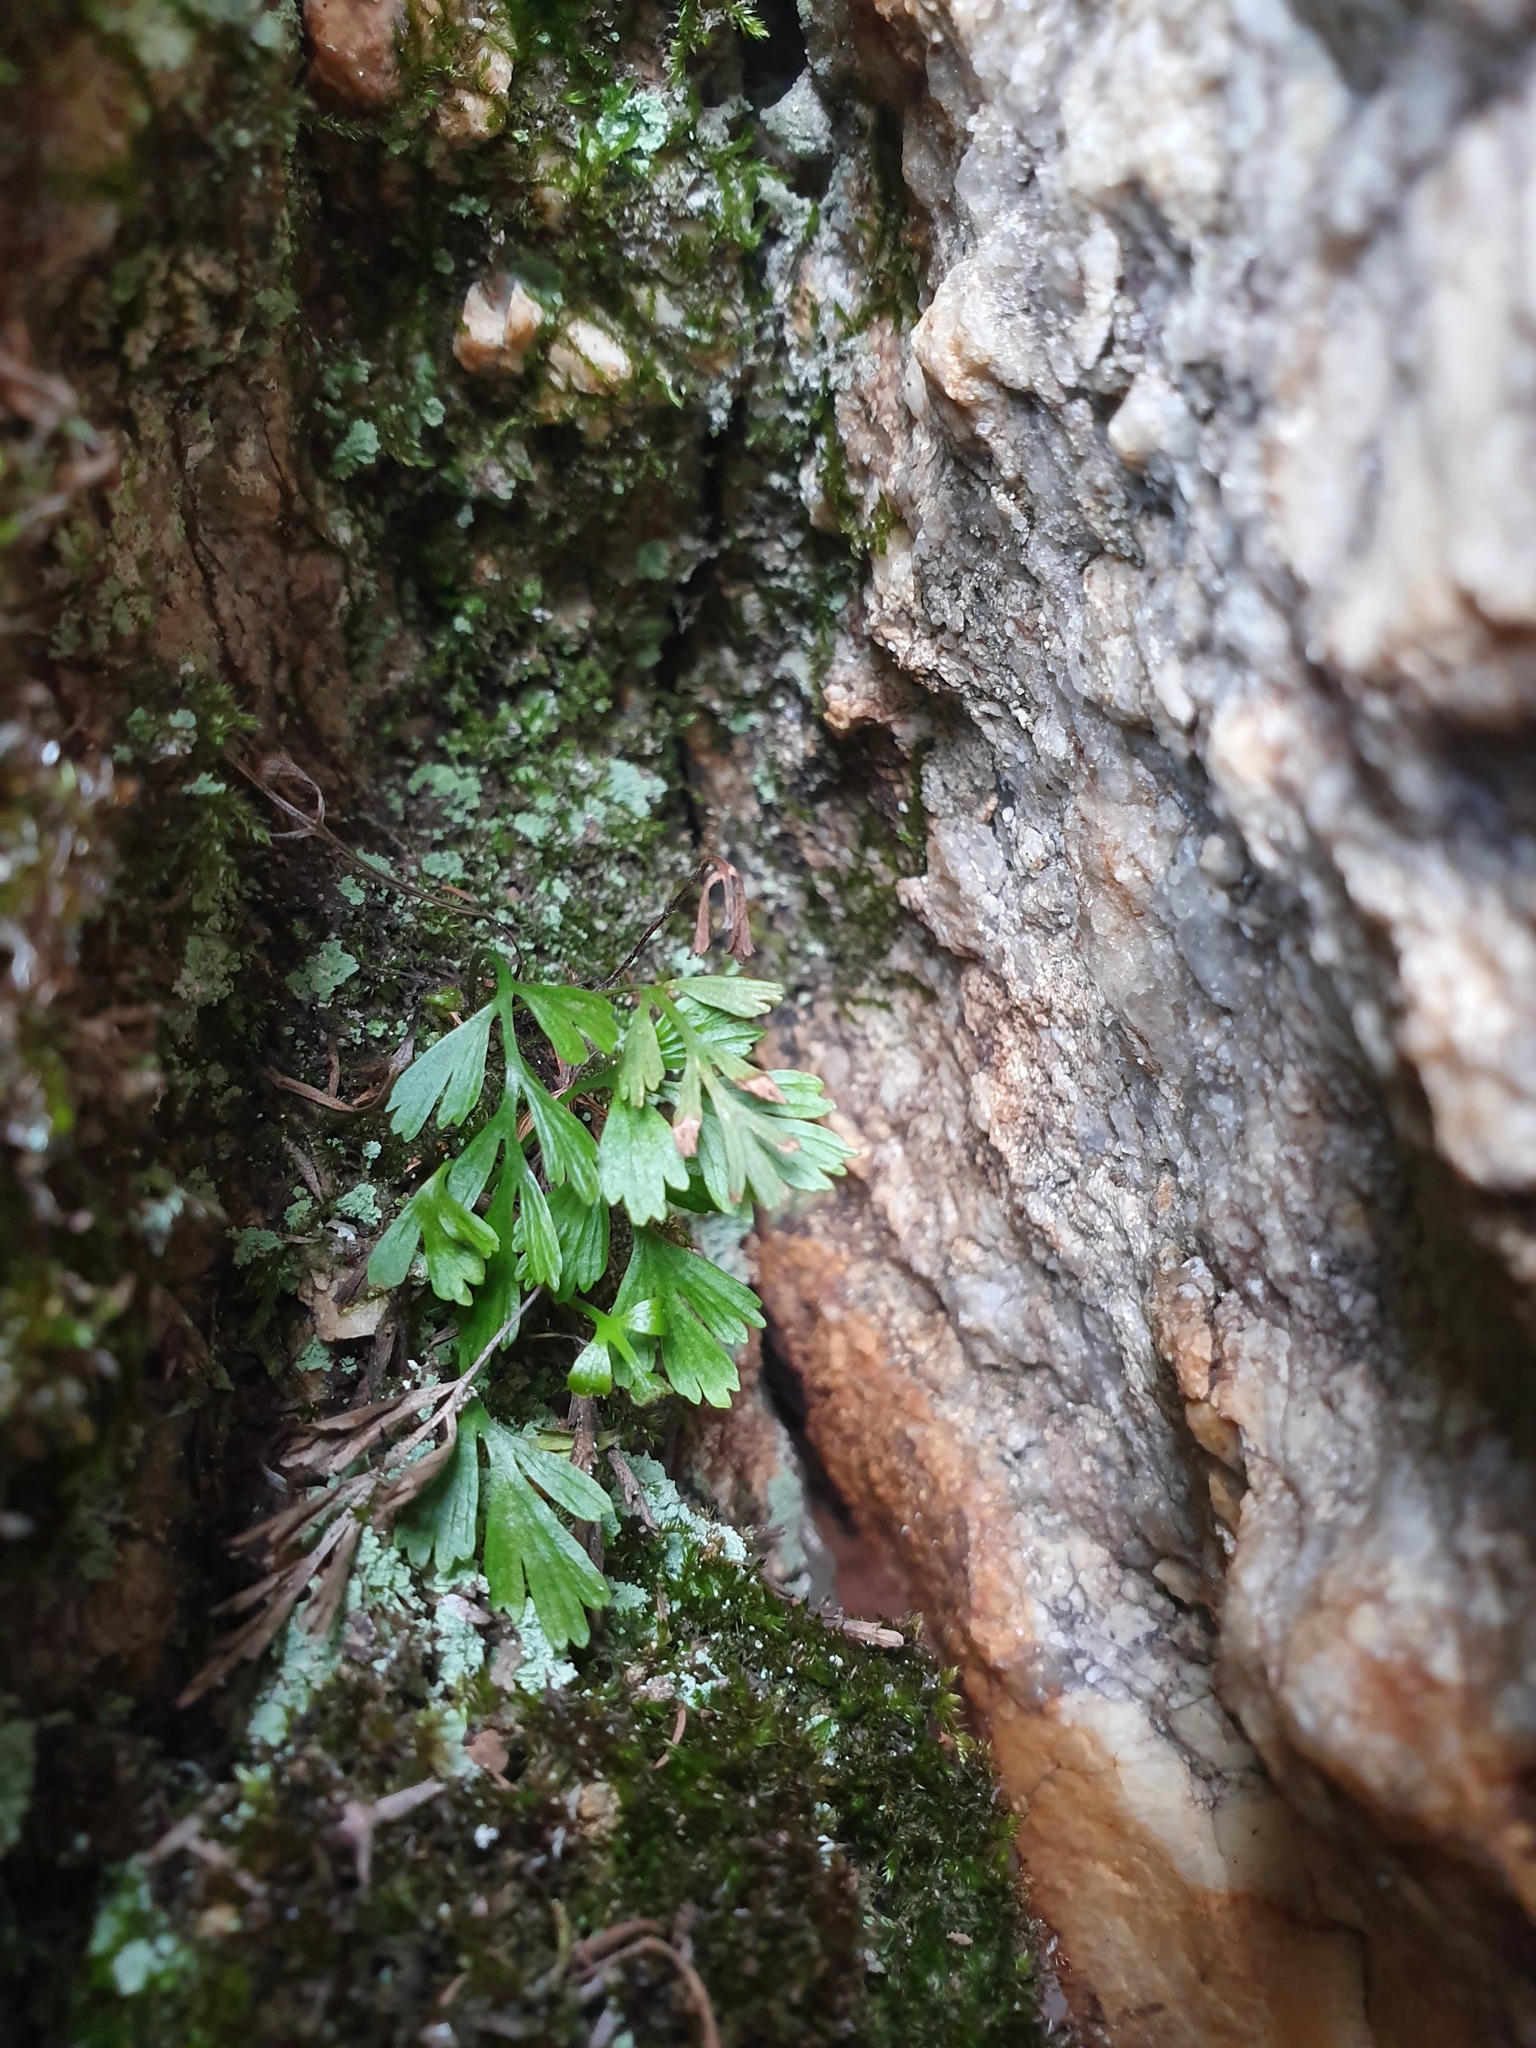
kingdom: Plantae
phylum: Tracheophyta
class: Polypodiopsida
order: Polypodiales
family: Aspleniaceae
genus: Asplenium
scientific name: Asplenium aethiopicum
